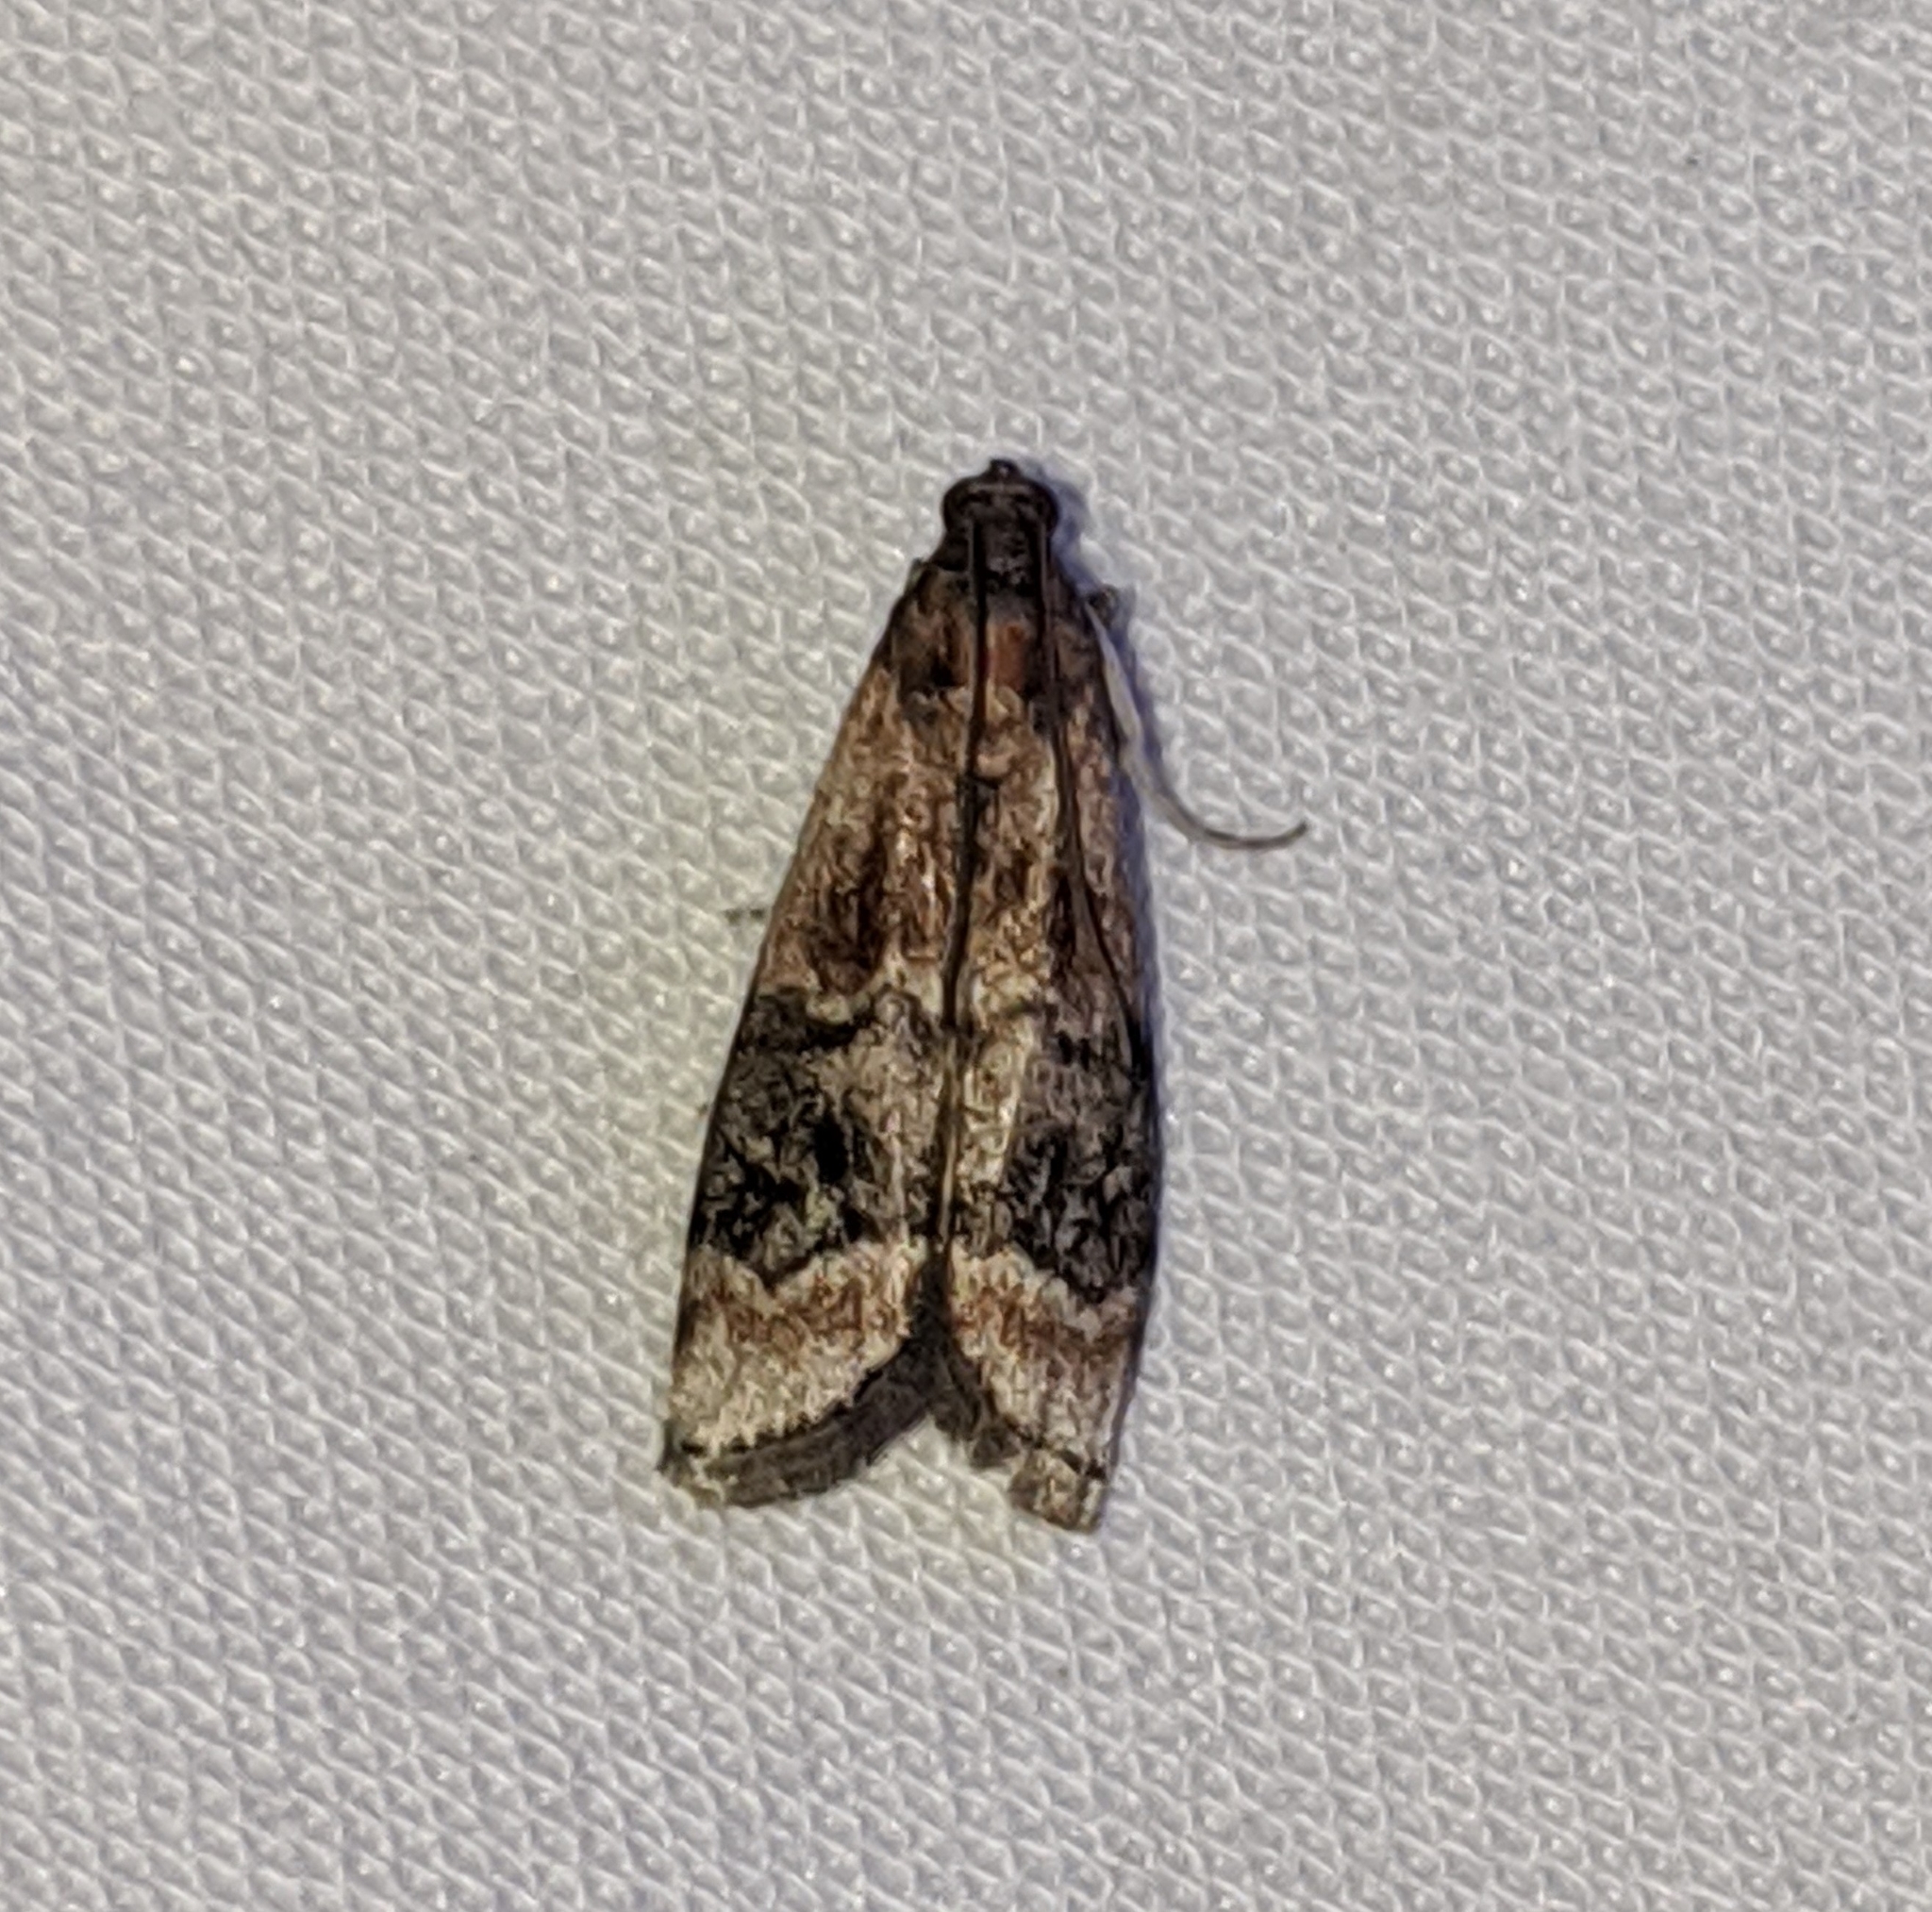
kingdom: Animalia
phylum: Arthropoda
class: Insecta
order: Lepidoptera
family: Pyralidae
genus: Euzophera
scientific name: Euzophera semifuneralis
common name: American plum borer moth
